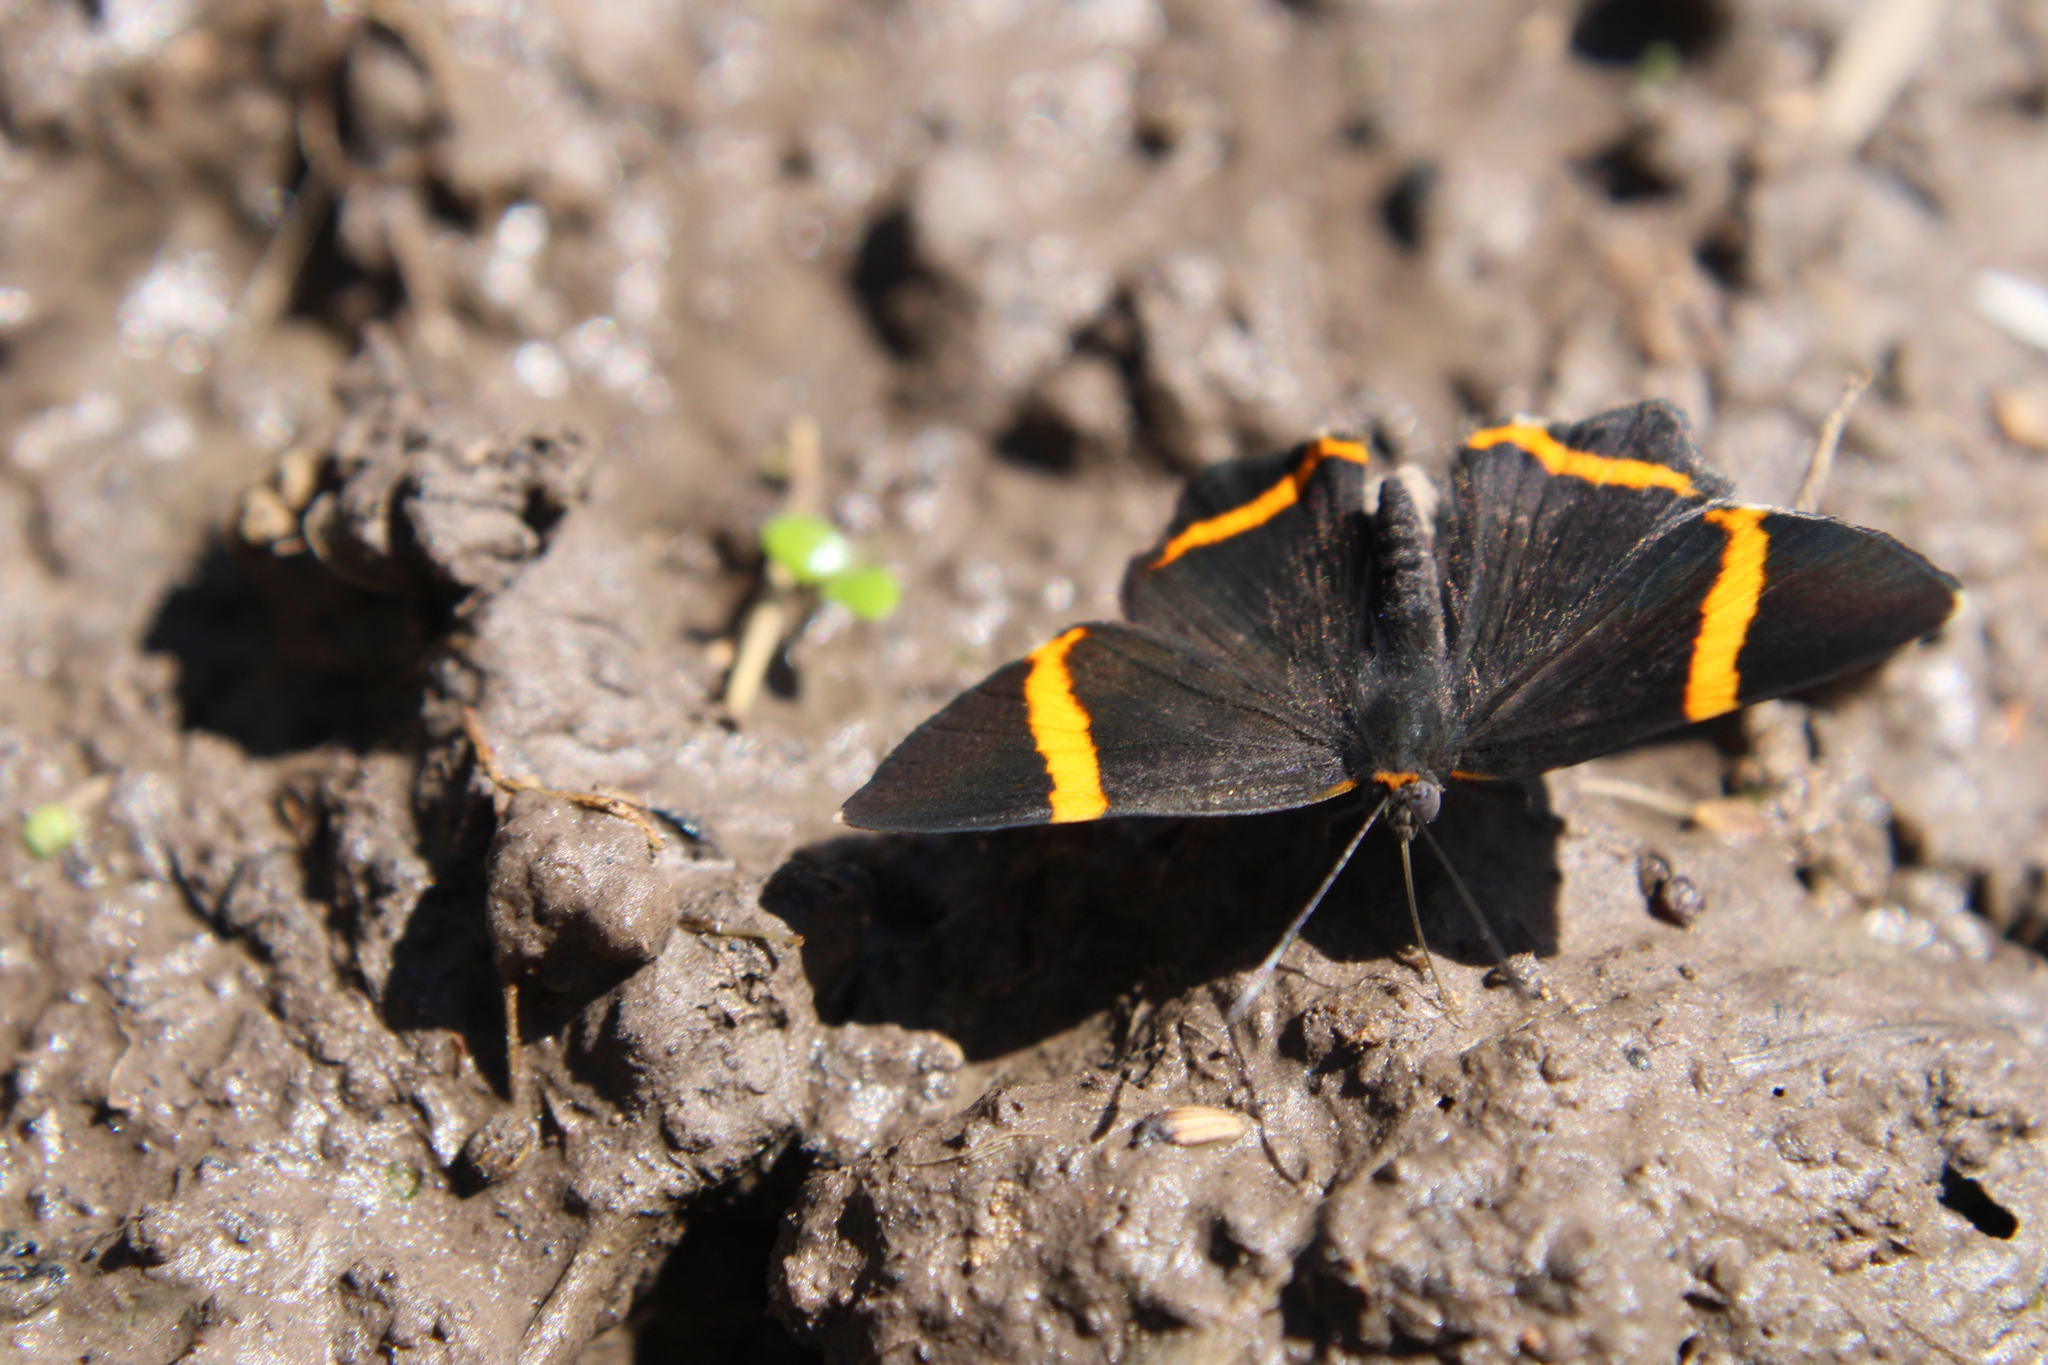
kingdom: Animalia
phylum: Arthropoda
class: Insecta
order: Lepidoptera
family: Riodinidae
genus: Riodina
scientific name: Riodina lysippoides
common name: Little dancer metalmark
